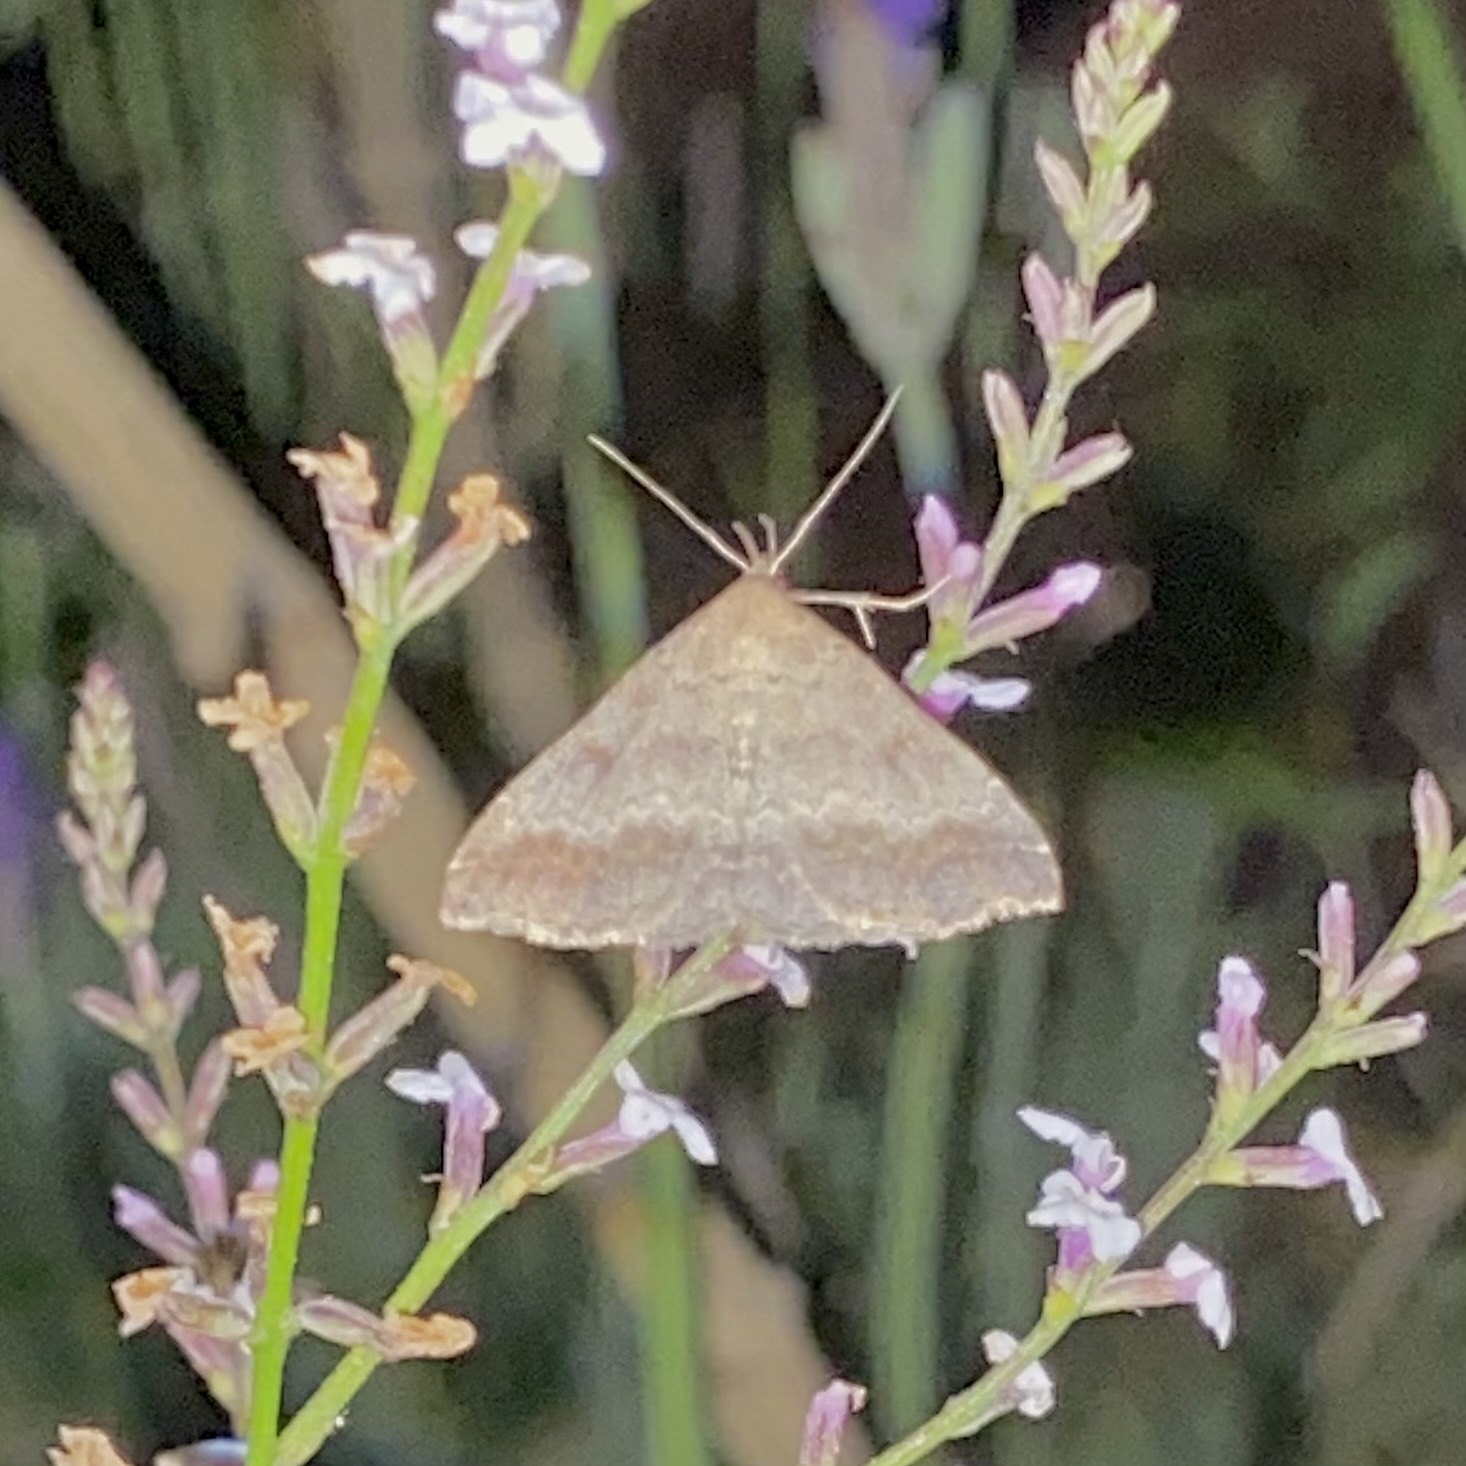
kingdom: Animalia
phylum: Arthropoda
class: Insecta
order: Lepidoptera
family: Erebidae
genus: Tetanolita
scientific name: Tetanolita palligera
